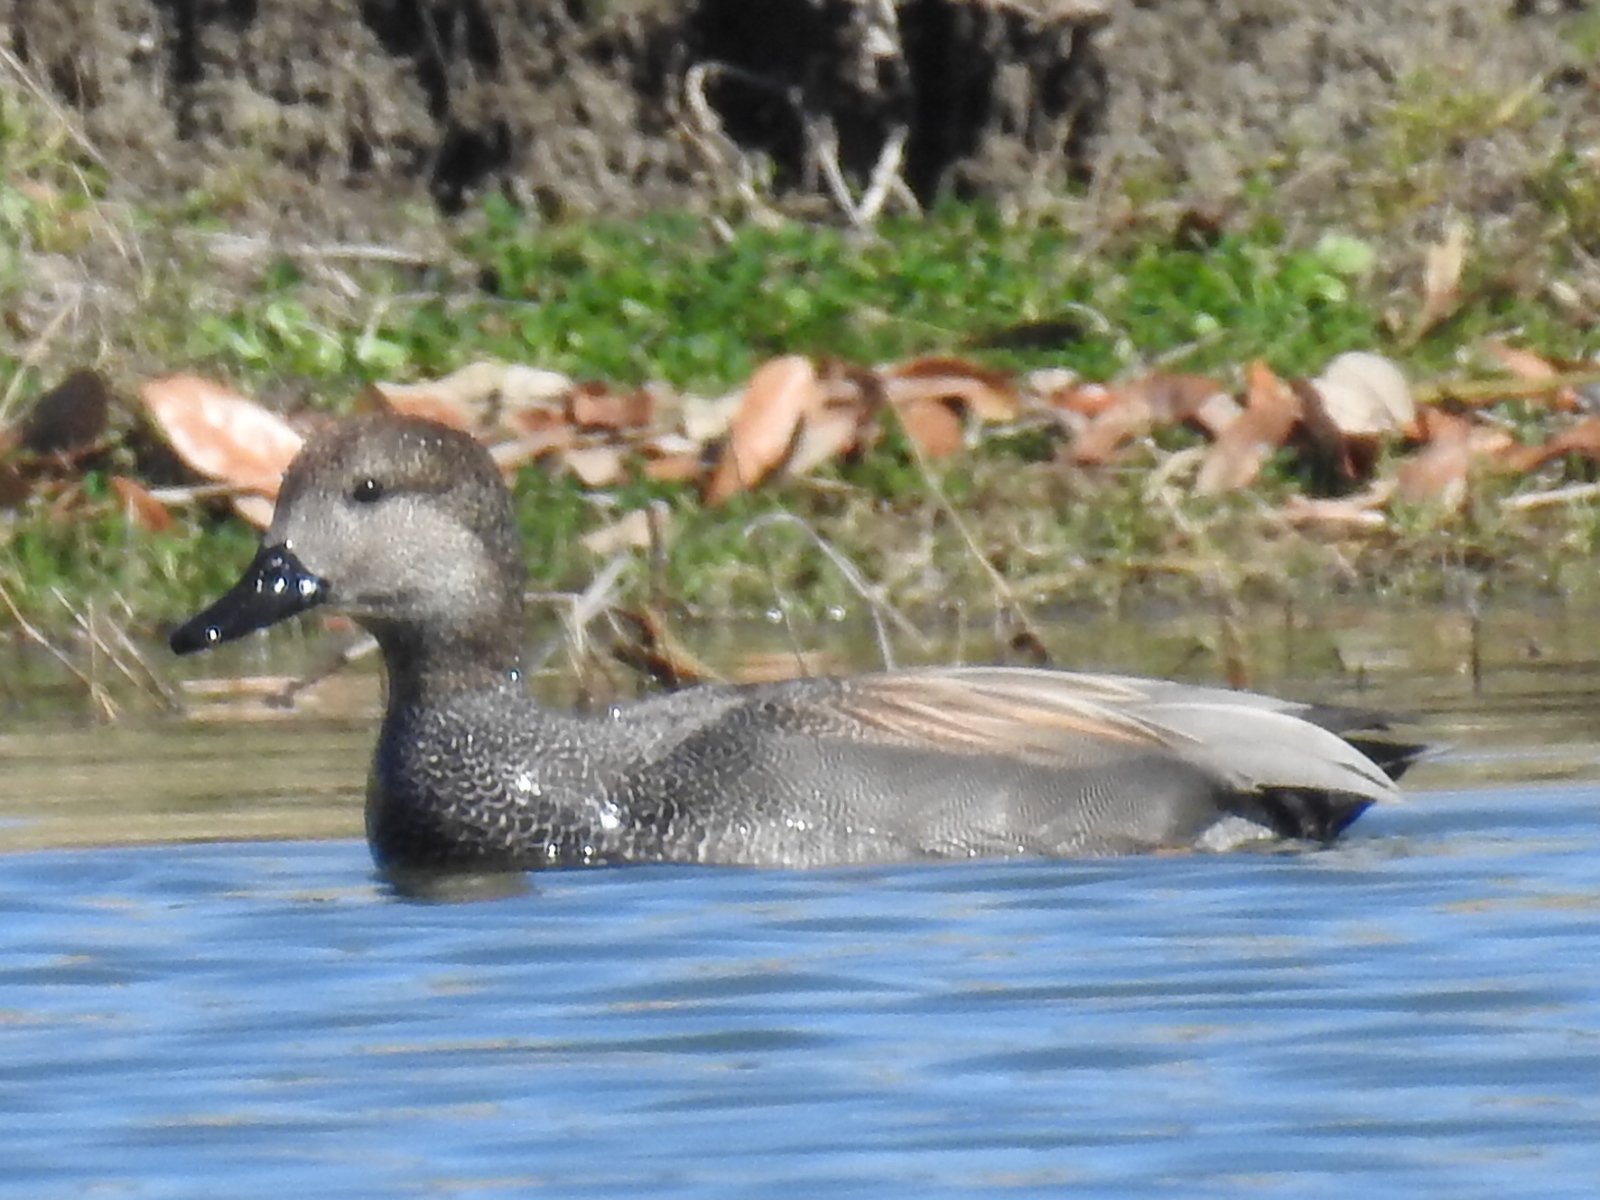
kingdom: Animalia
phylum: Chordata
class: Aves
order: Anseriformes
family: Anatidae
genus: Mareca
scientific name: Mareca strepera
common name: Gadwall
